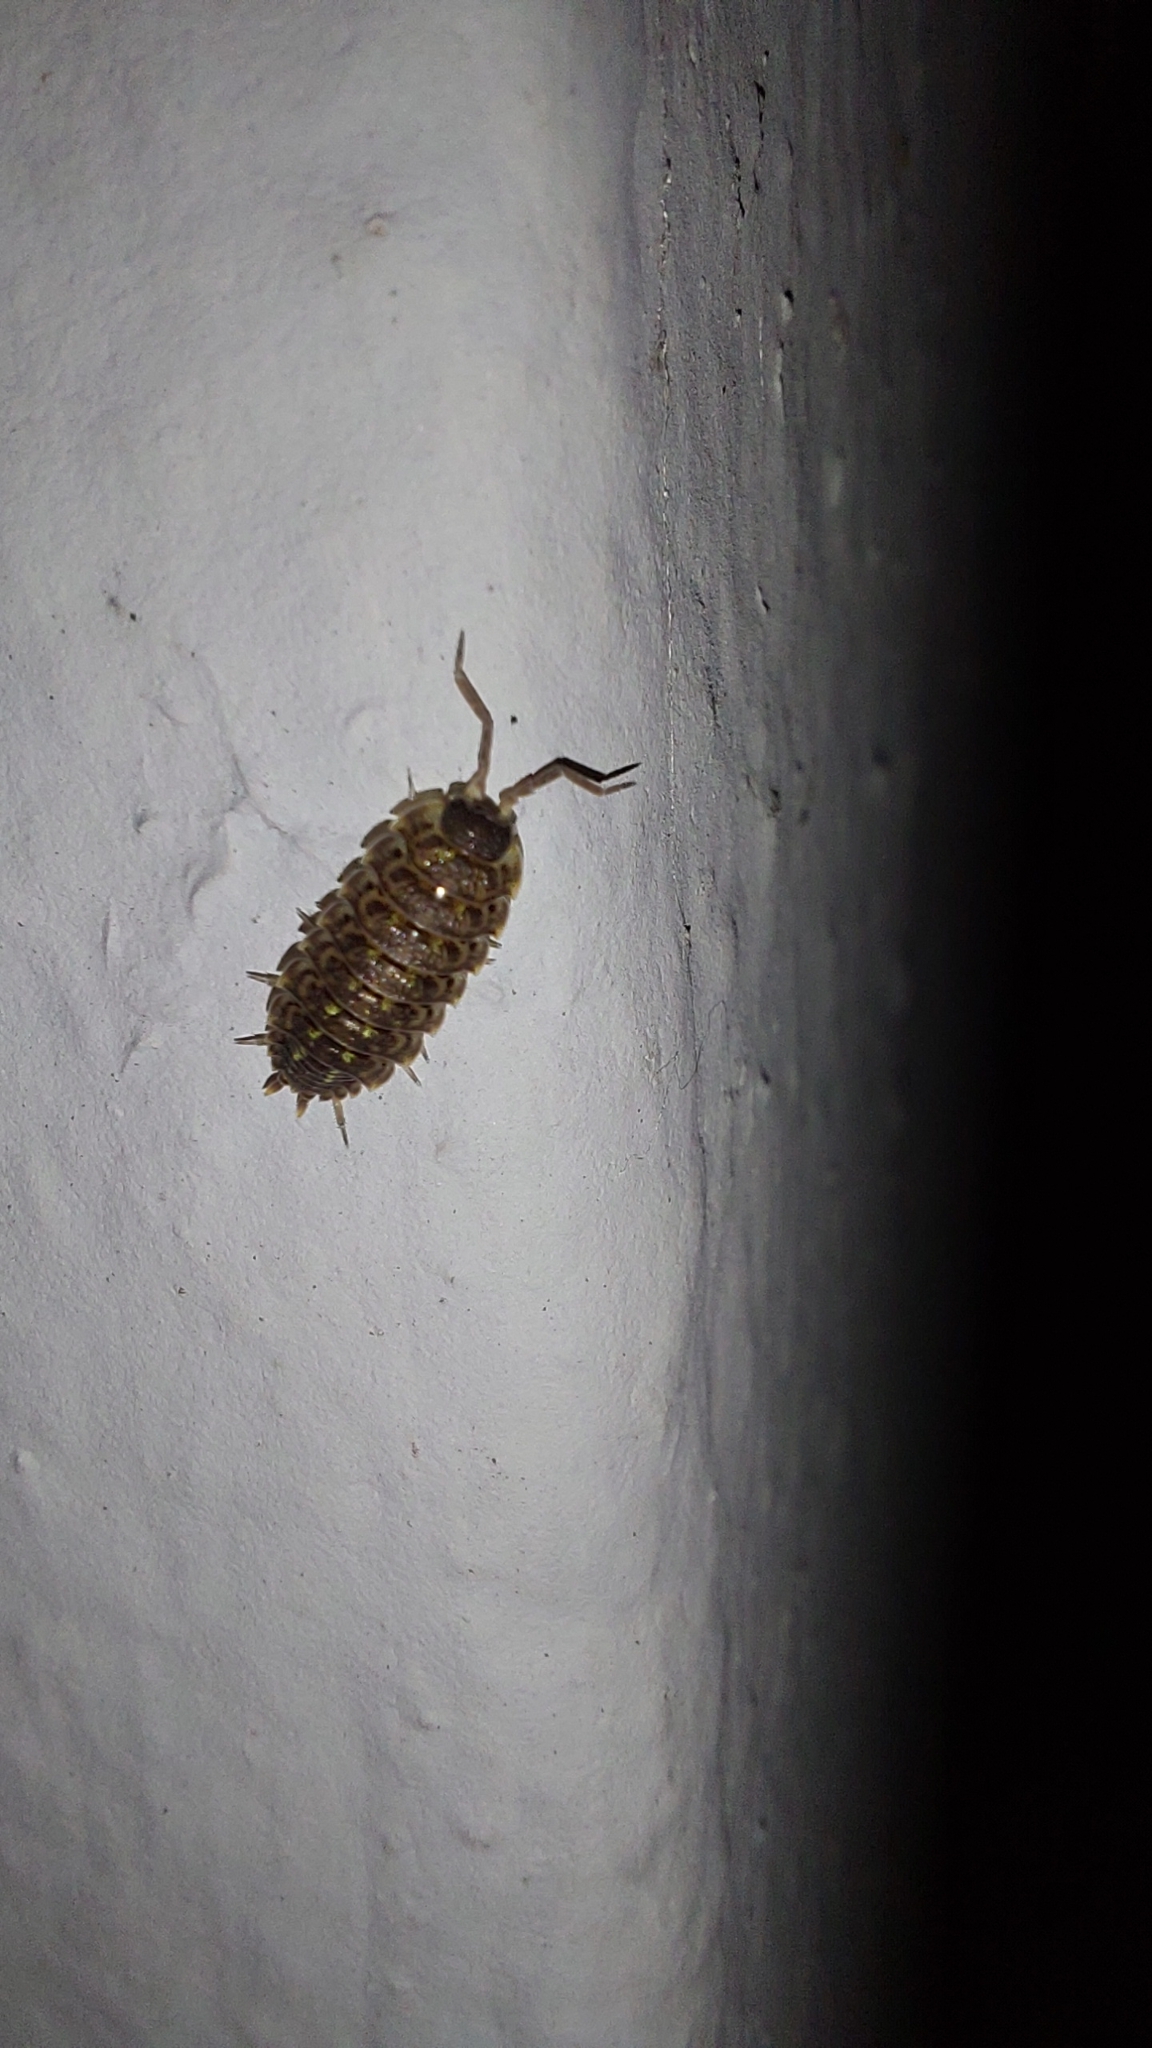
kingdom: Animalia
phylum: Arthropoda
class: Malacostraca
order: Isopoda
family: Porcellionidae
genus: Porcellio
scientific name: Porcellio spinicornis
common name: Painted woodlouse
